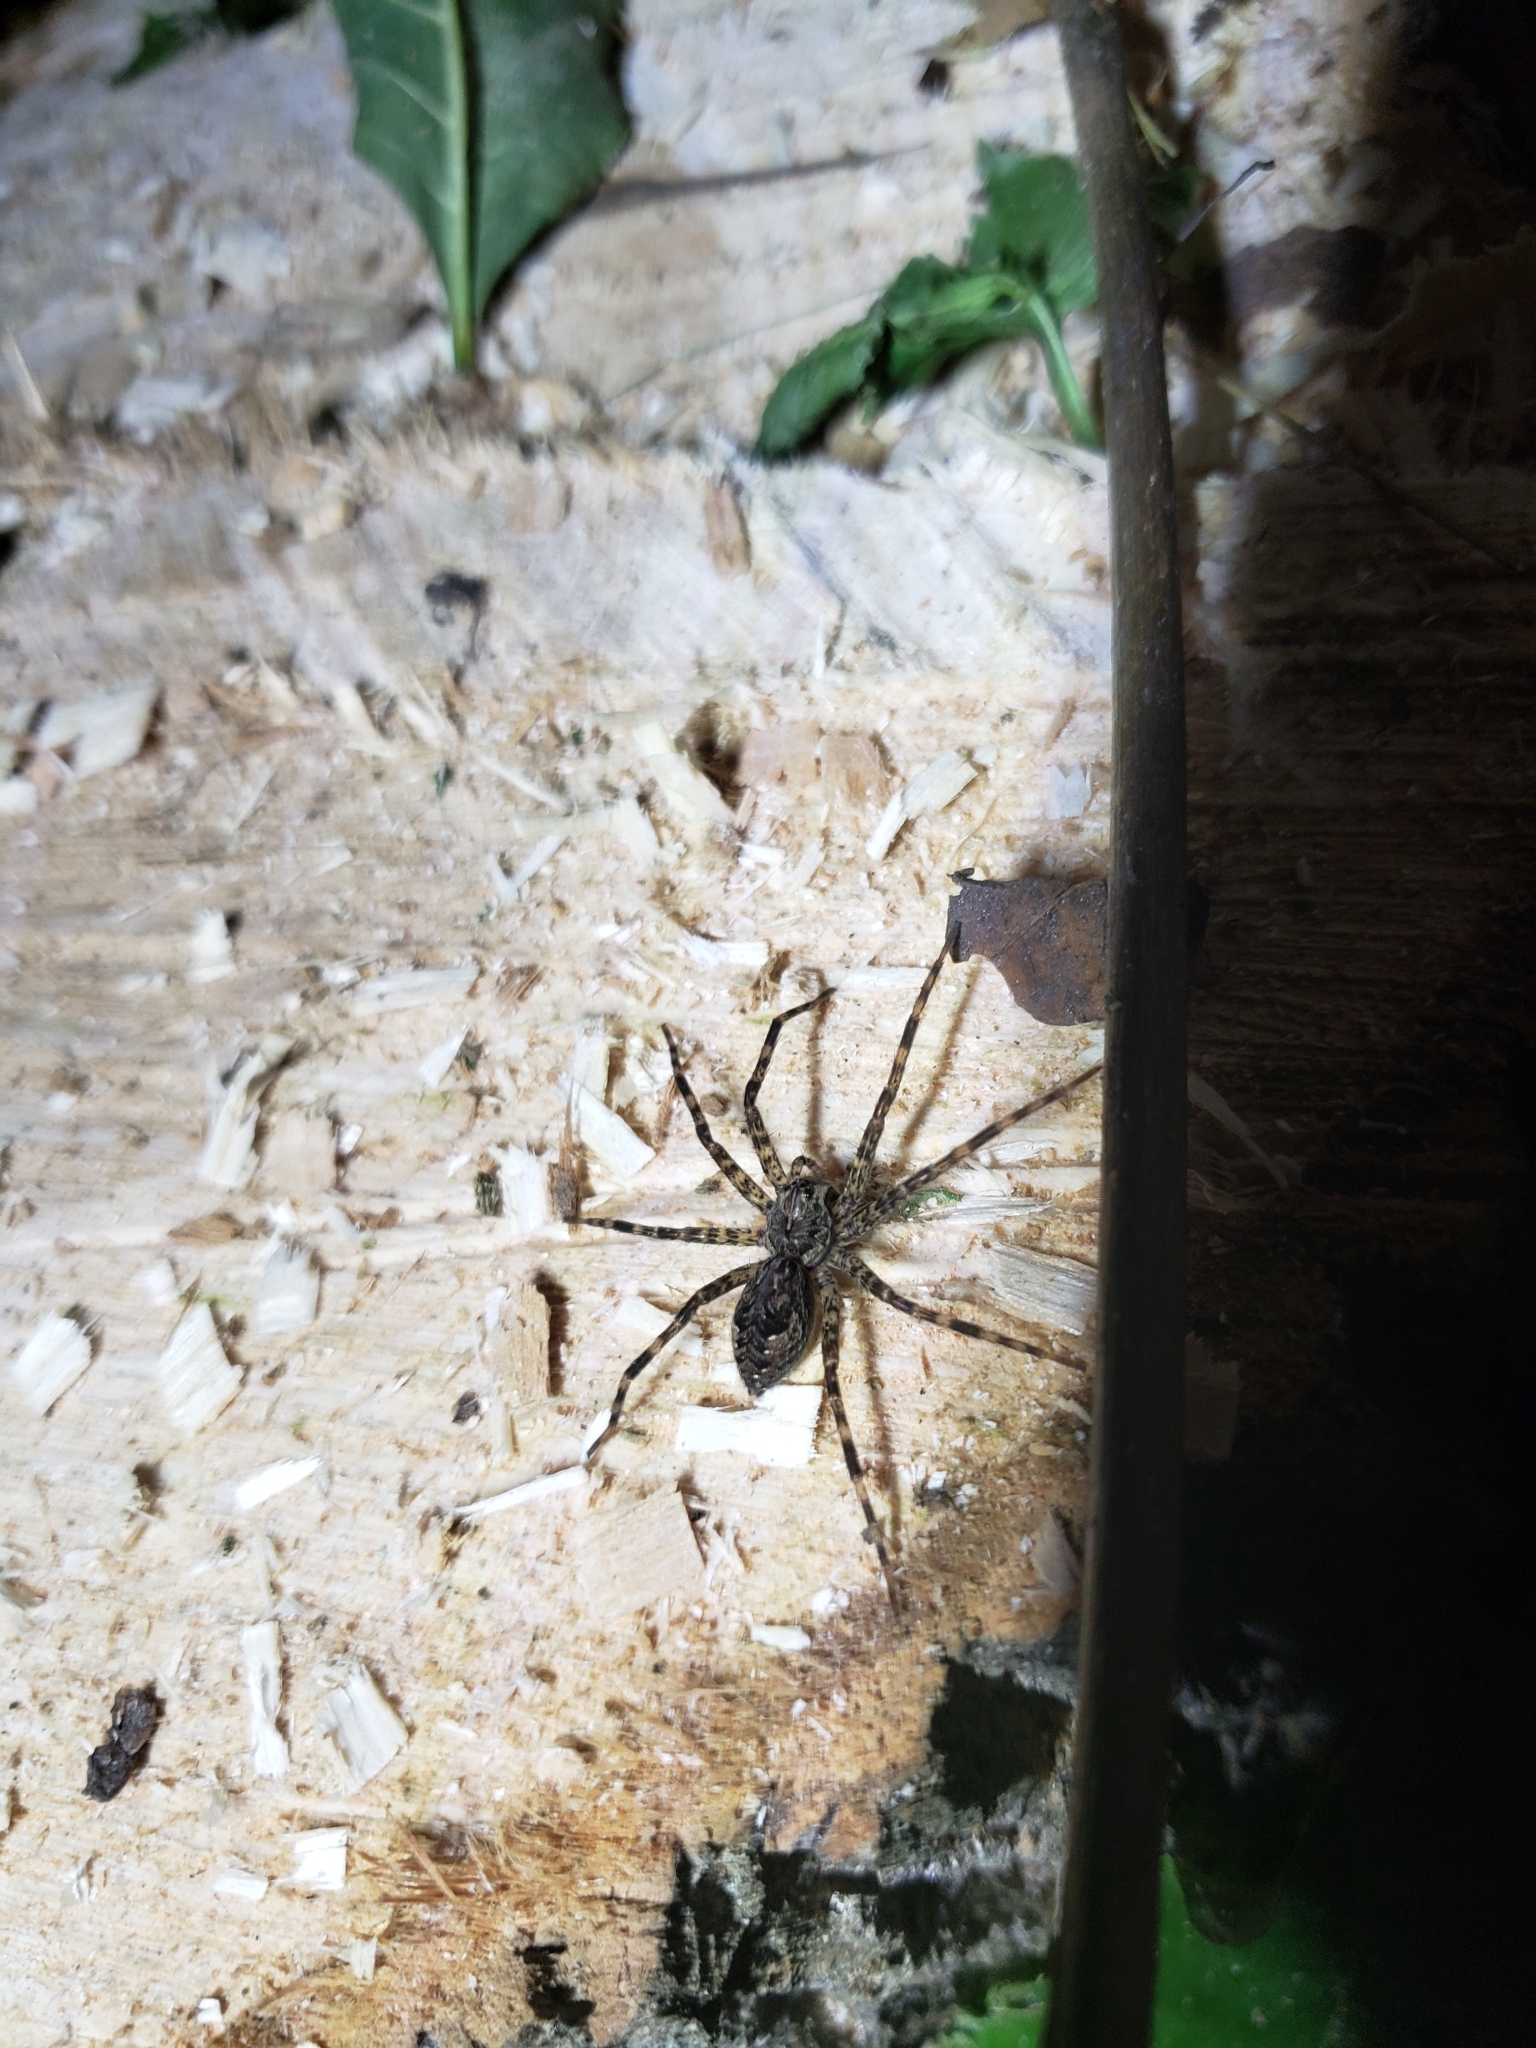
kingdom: Animalia
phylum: Arthropoda
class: Arachnida
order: Araneae
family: Pisauridae
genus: Dolomedes
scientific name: Dolomedes tenebrosus
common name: Dark fishing spider
